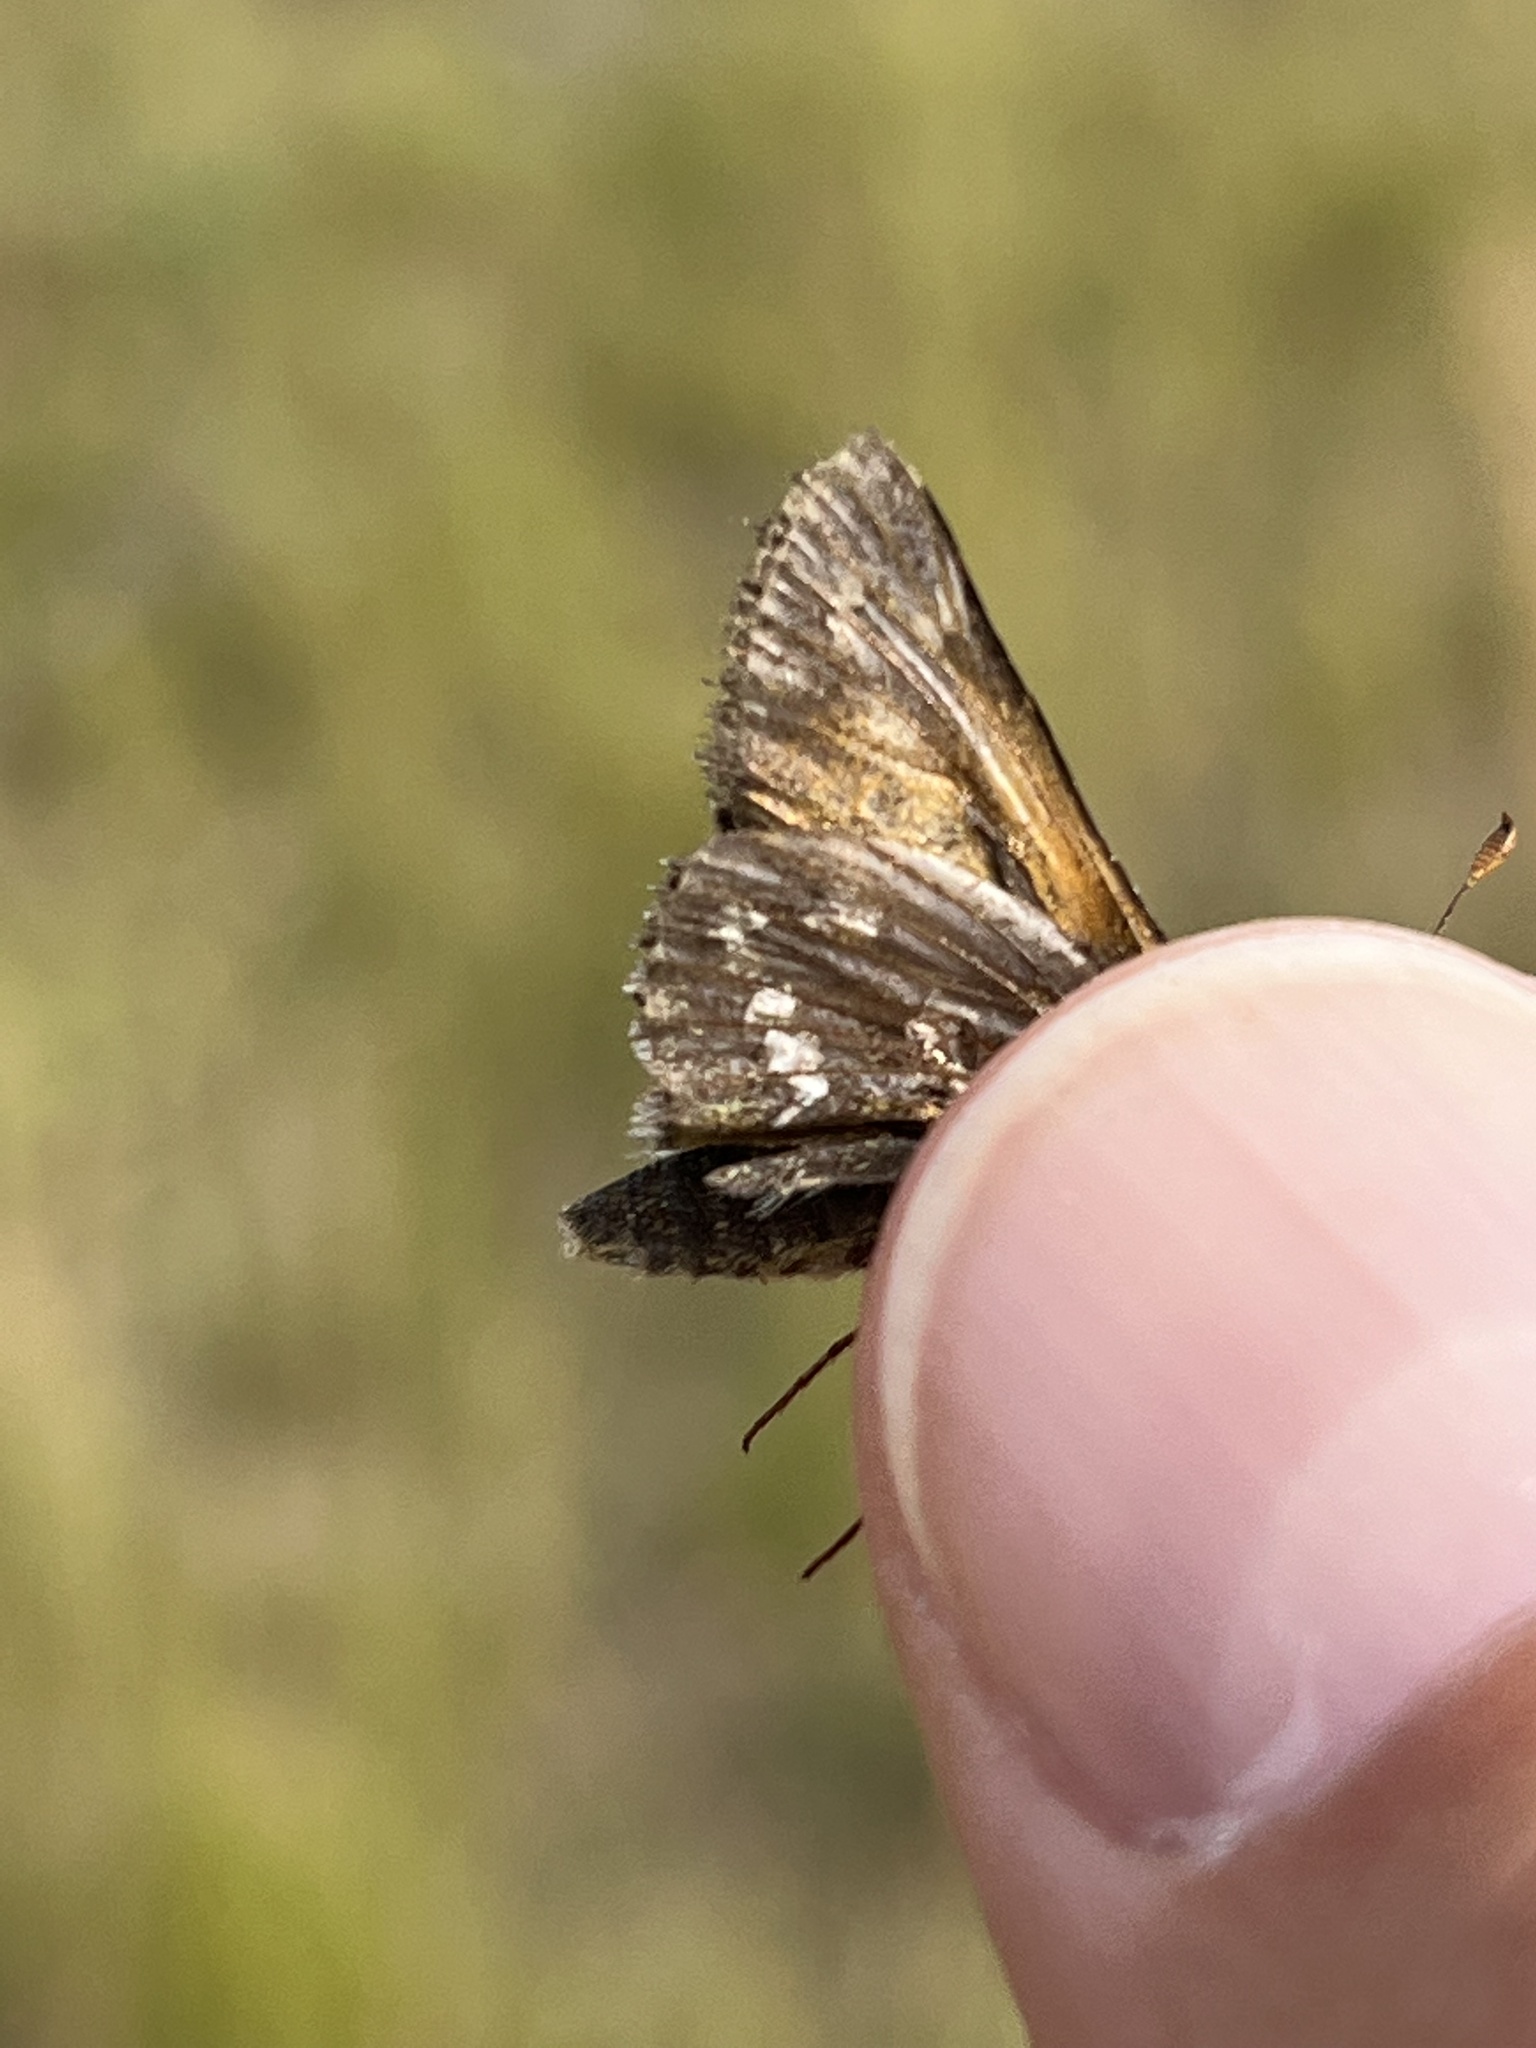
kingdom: Animalia
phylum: Arthropoda
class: Insecta
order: Lepidoptera
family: Hesperiidae
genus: Hesperia
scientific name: Hesperia comma
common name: Common branded skipper
